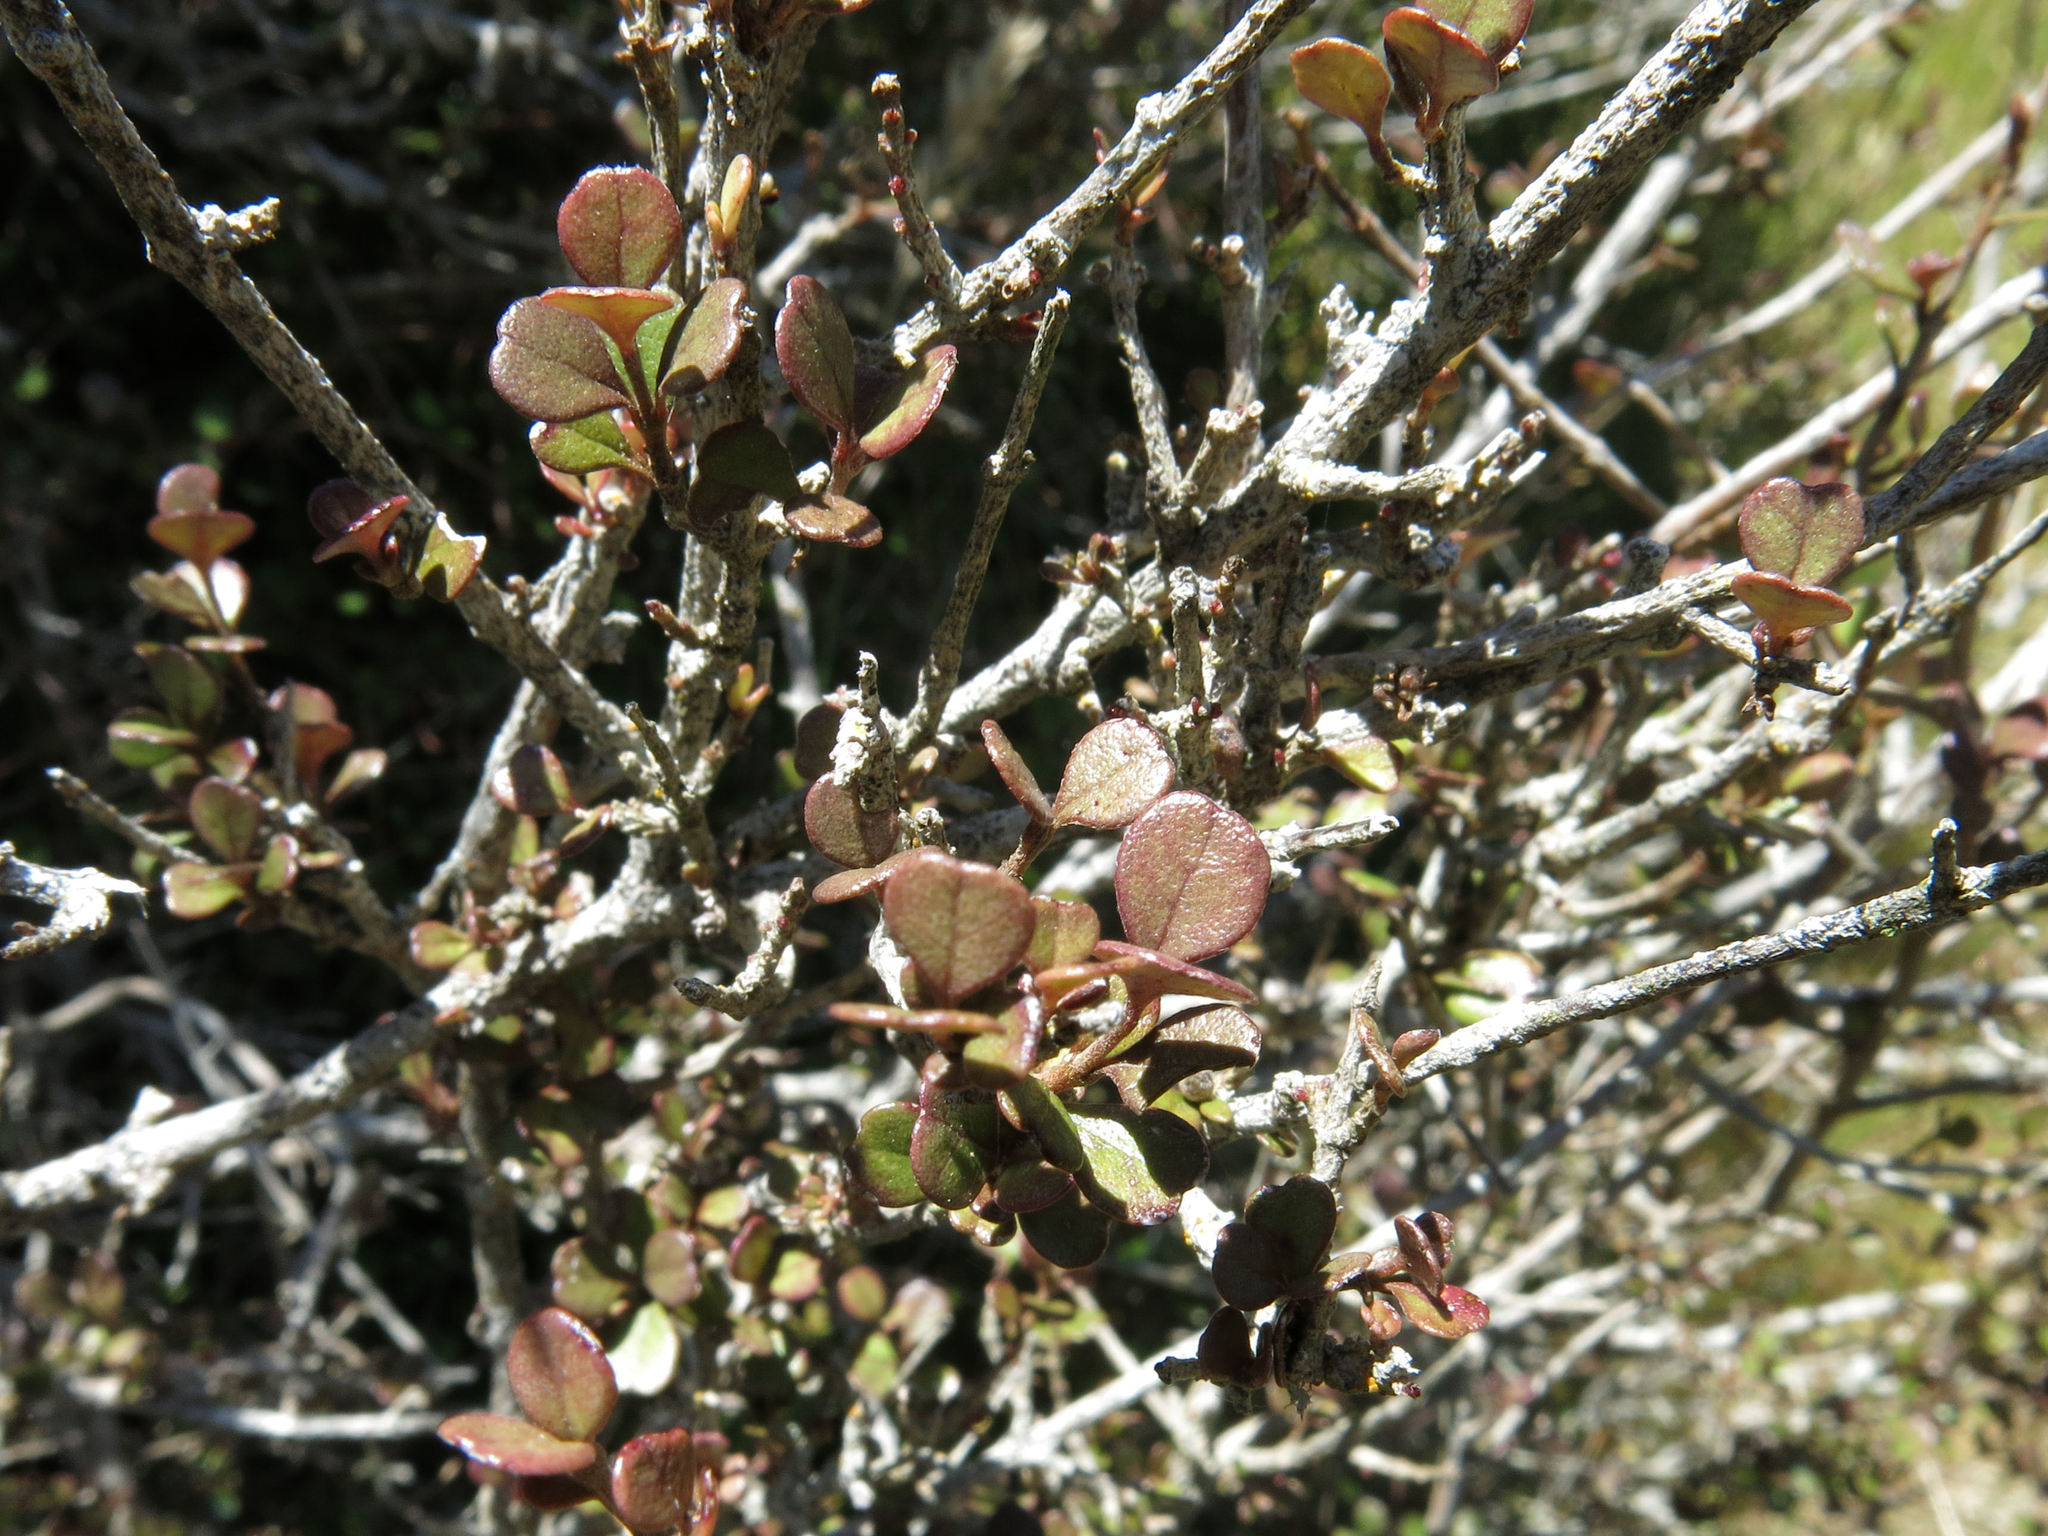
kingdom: Plantae
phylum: Tracheophyta
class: Magnoliopsida
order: Myrtales
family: Myrtaceae
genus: Lophomyrtus
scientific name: Lophomyrtus obcordata
